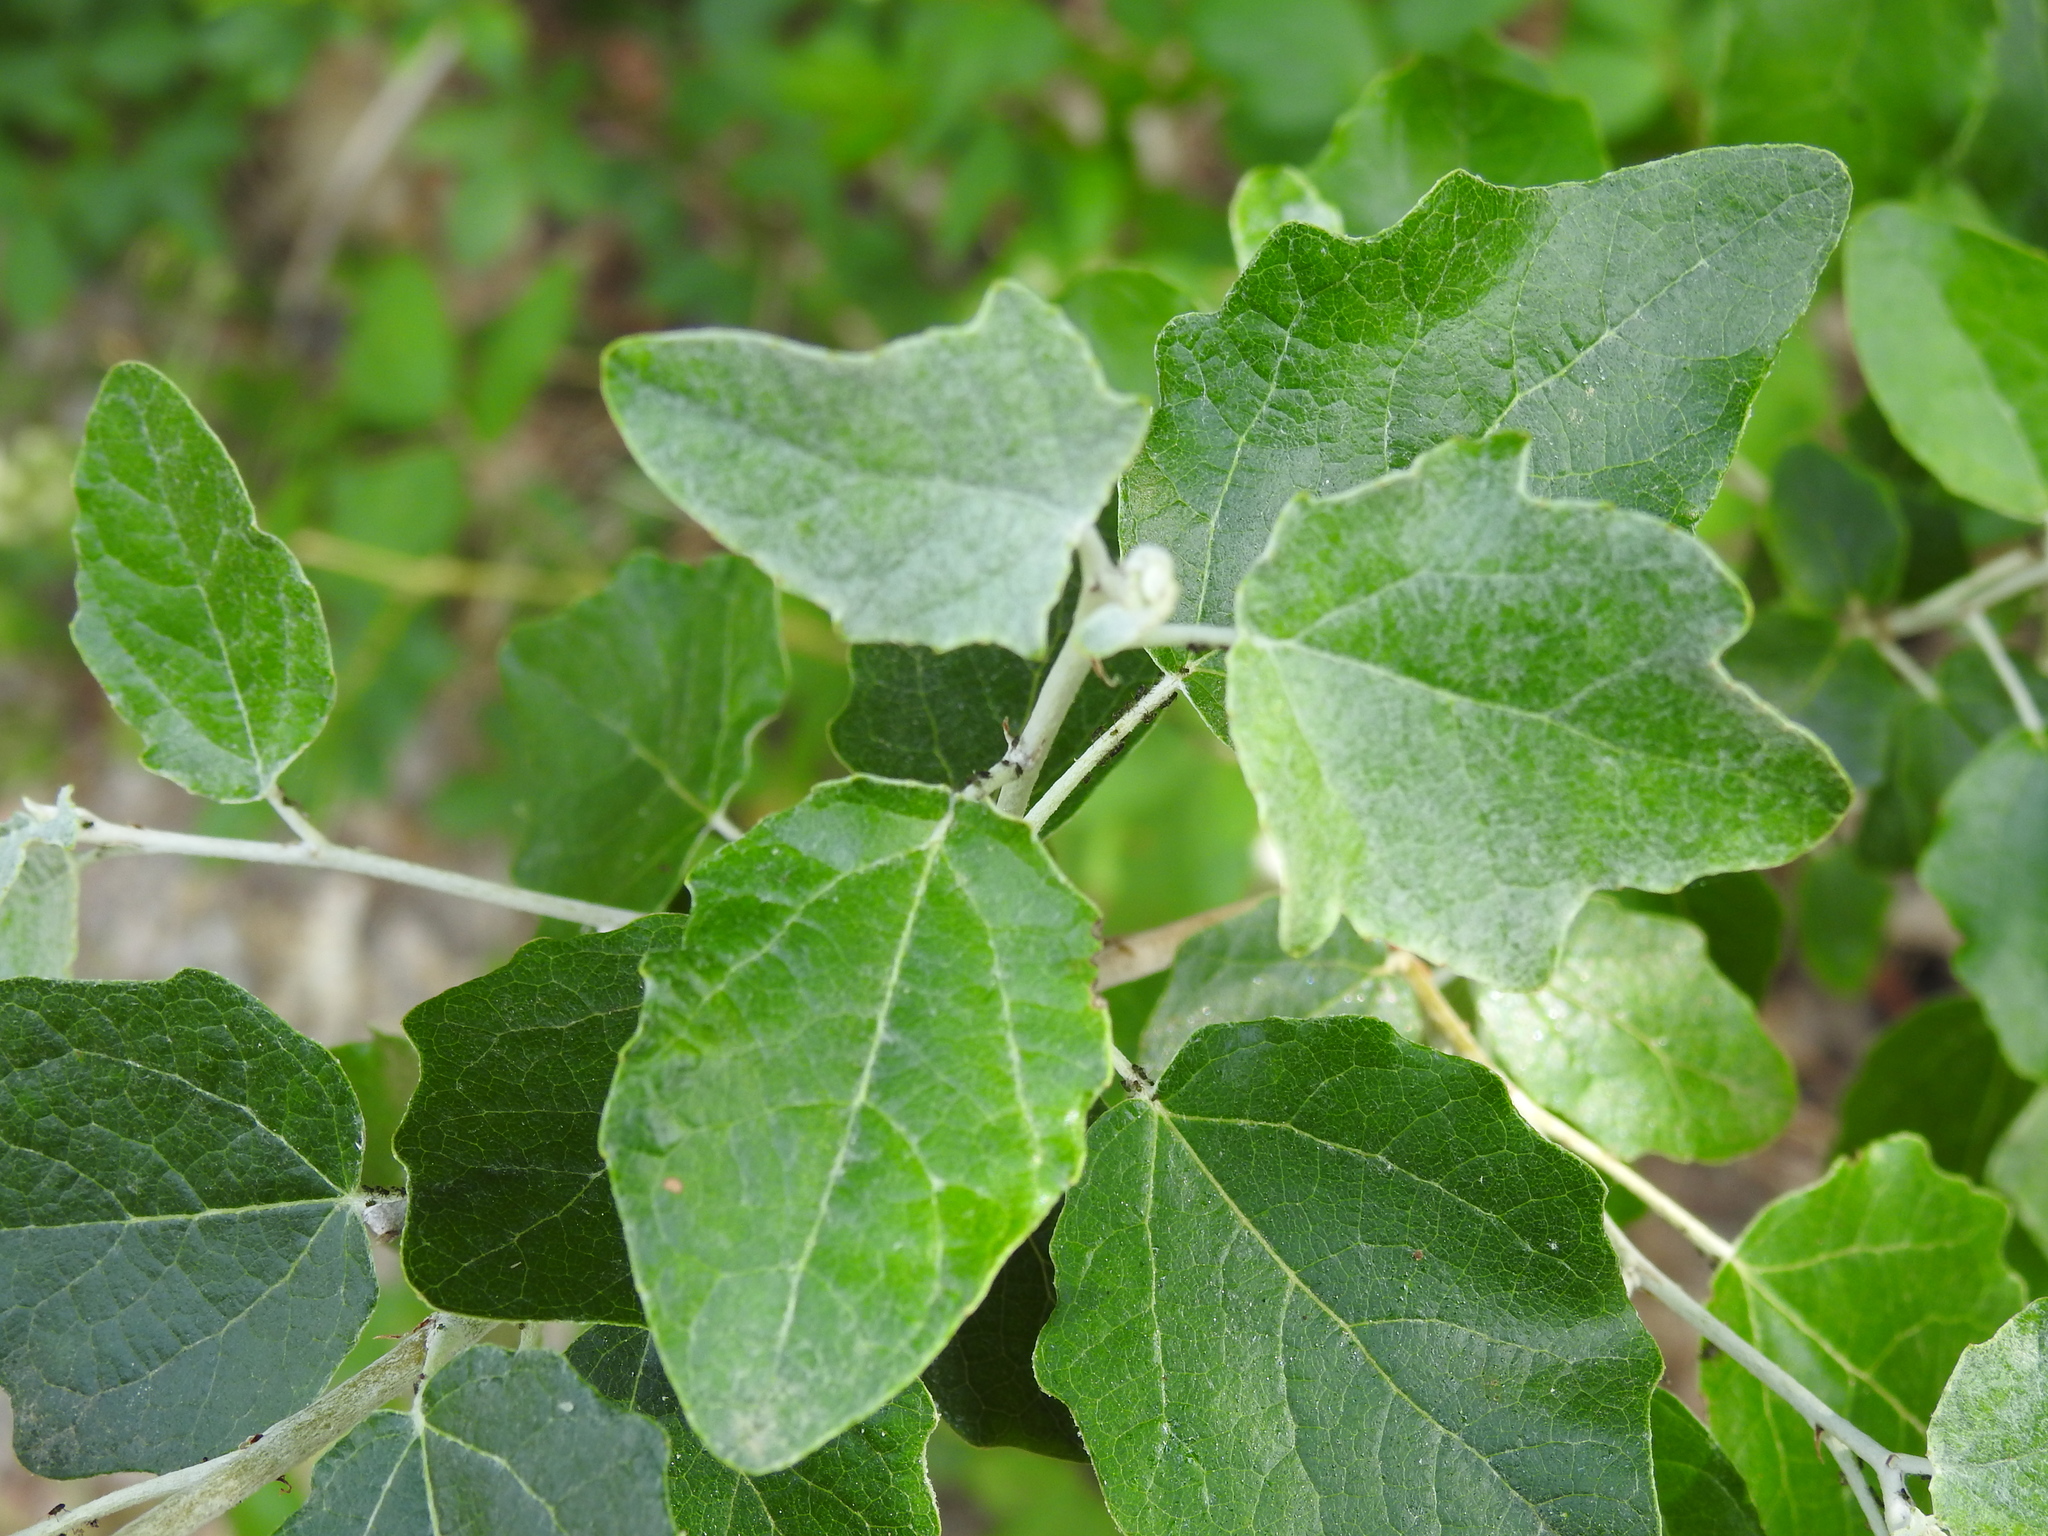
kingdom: Plantae
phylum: Tracheophyta
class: Magnoliopsida
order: Malpighiales
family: Salicaceae
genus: Populus
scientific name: Populus alba
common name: White poplar
